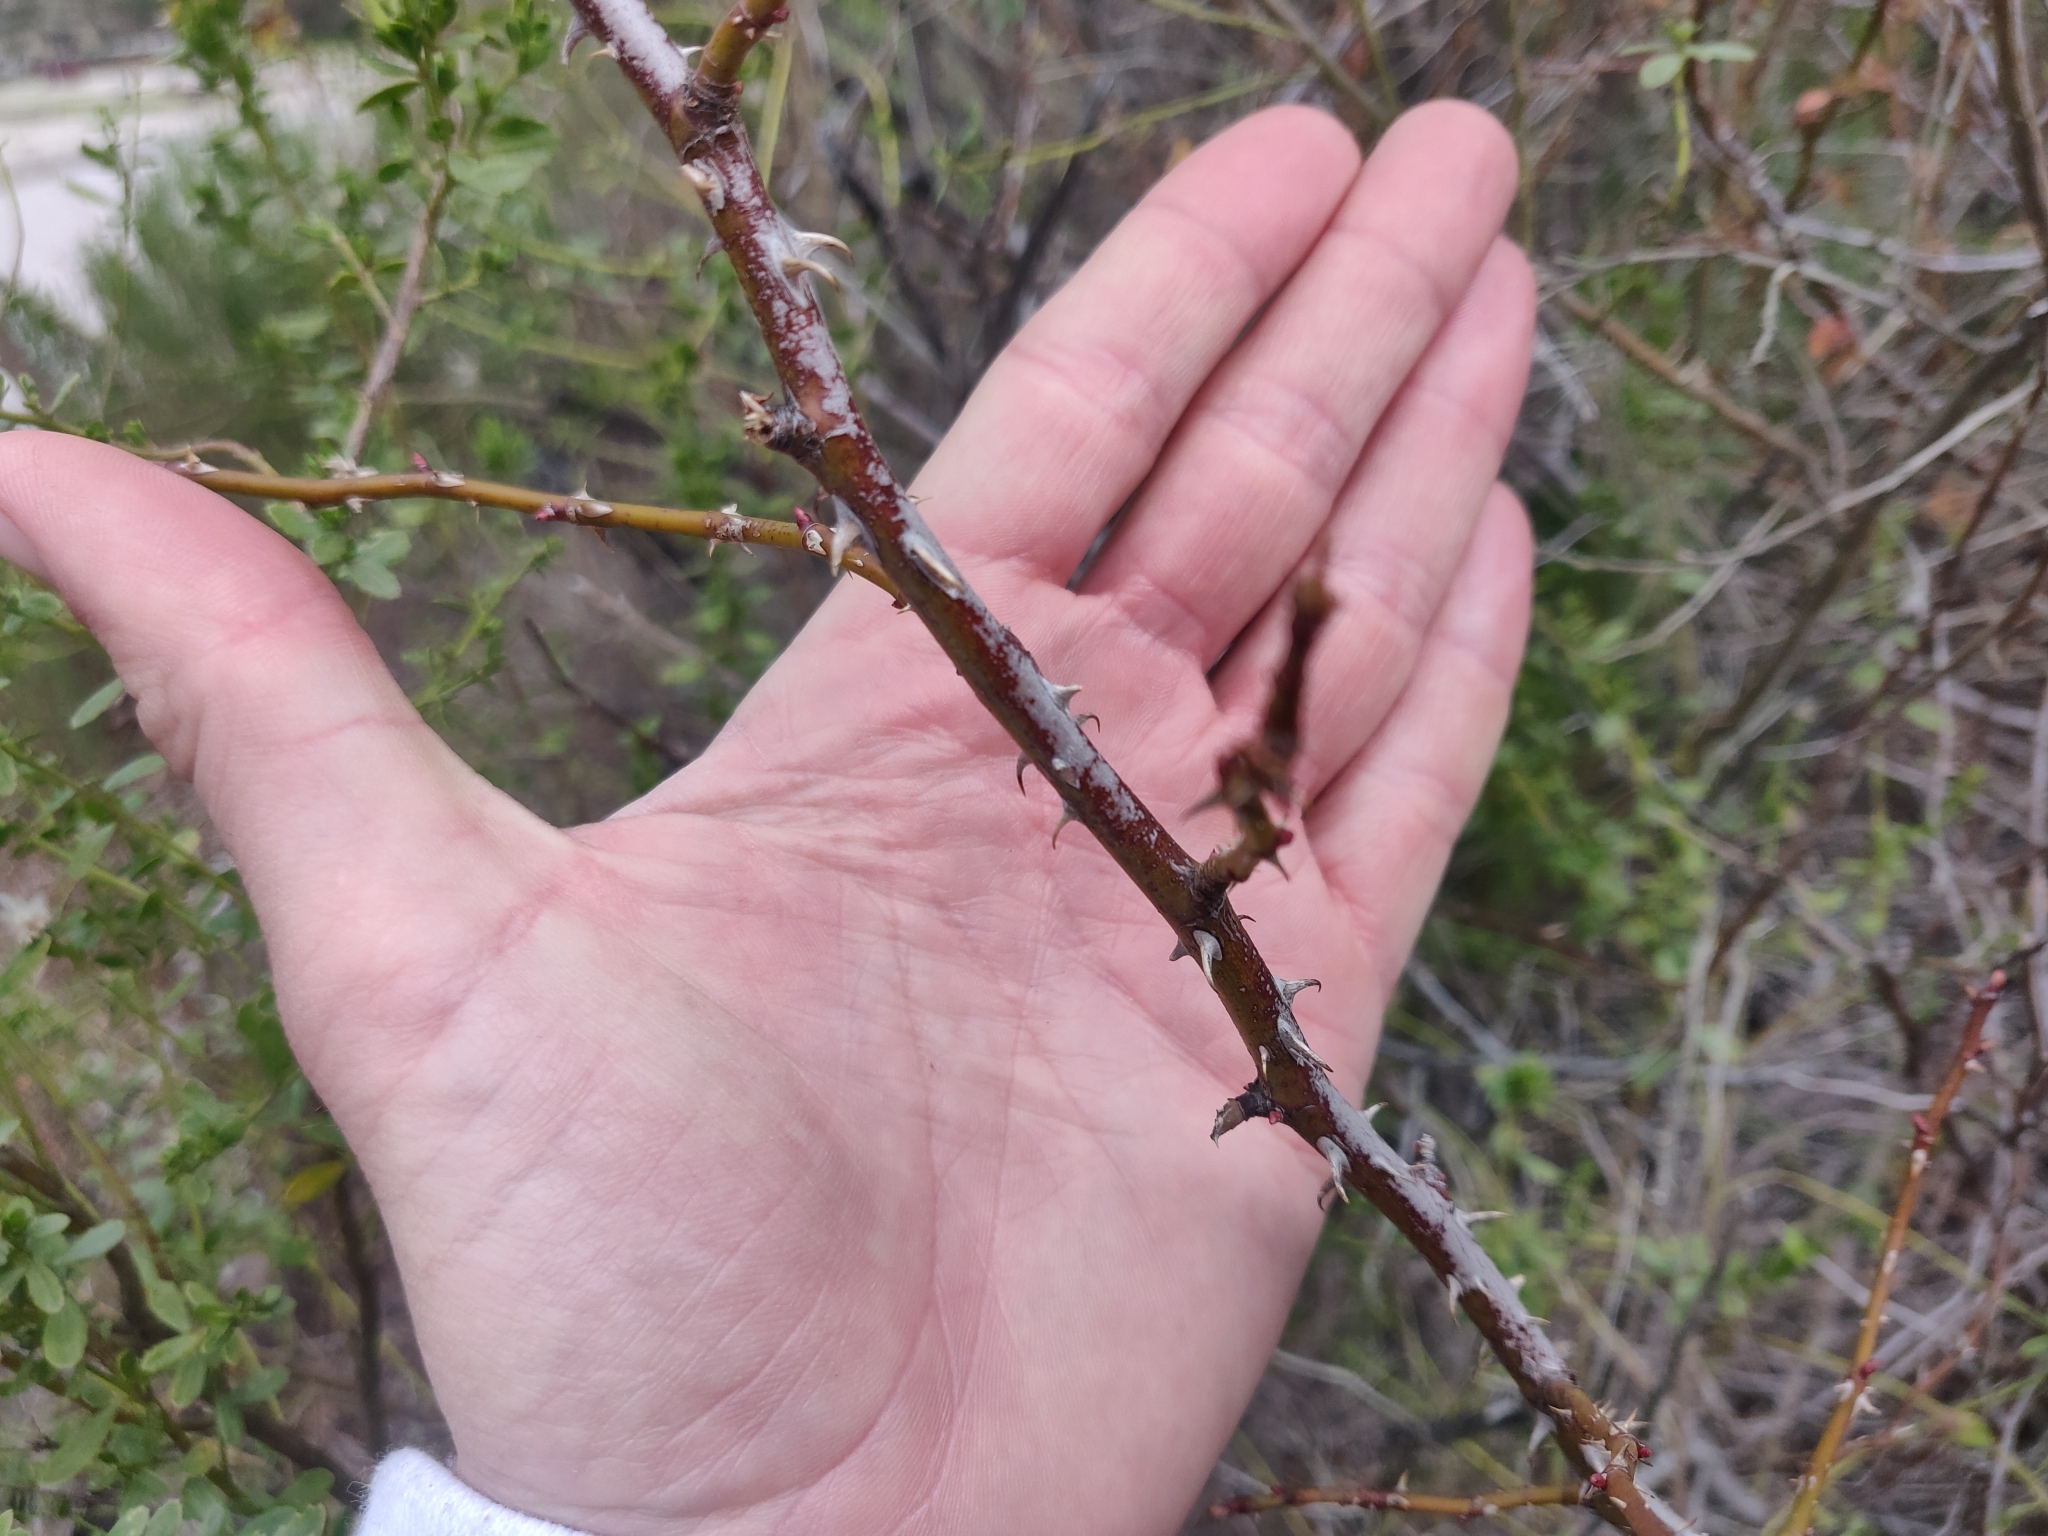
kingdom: Plantae
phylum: Tracheophyta
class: Magnoliopsida
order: Rosales
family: Rosaceae
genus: Rosa
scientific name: Rosa californica
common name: California rose
